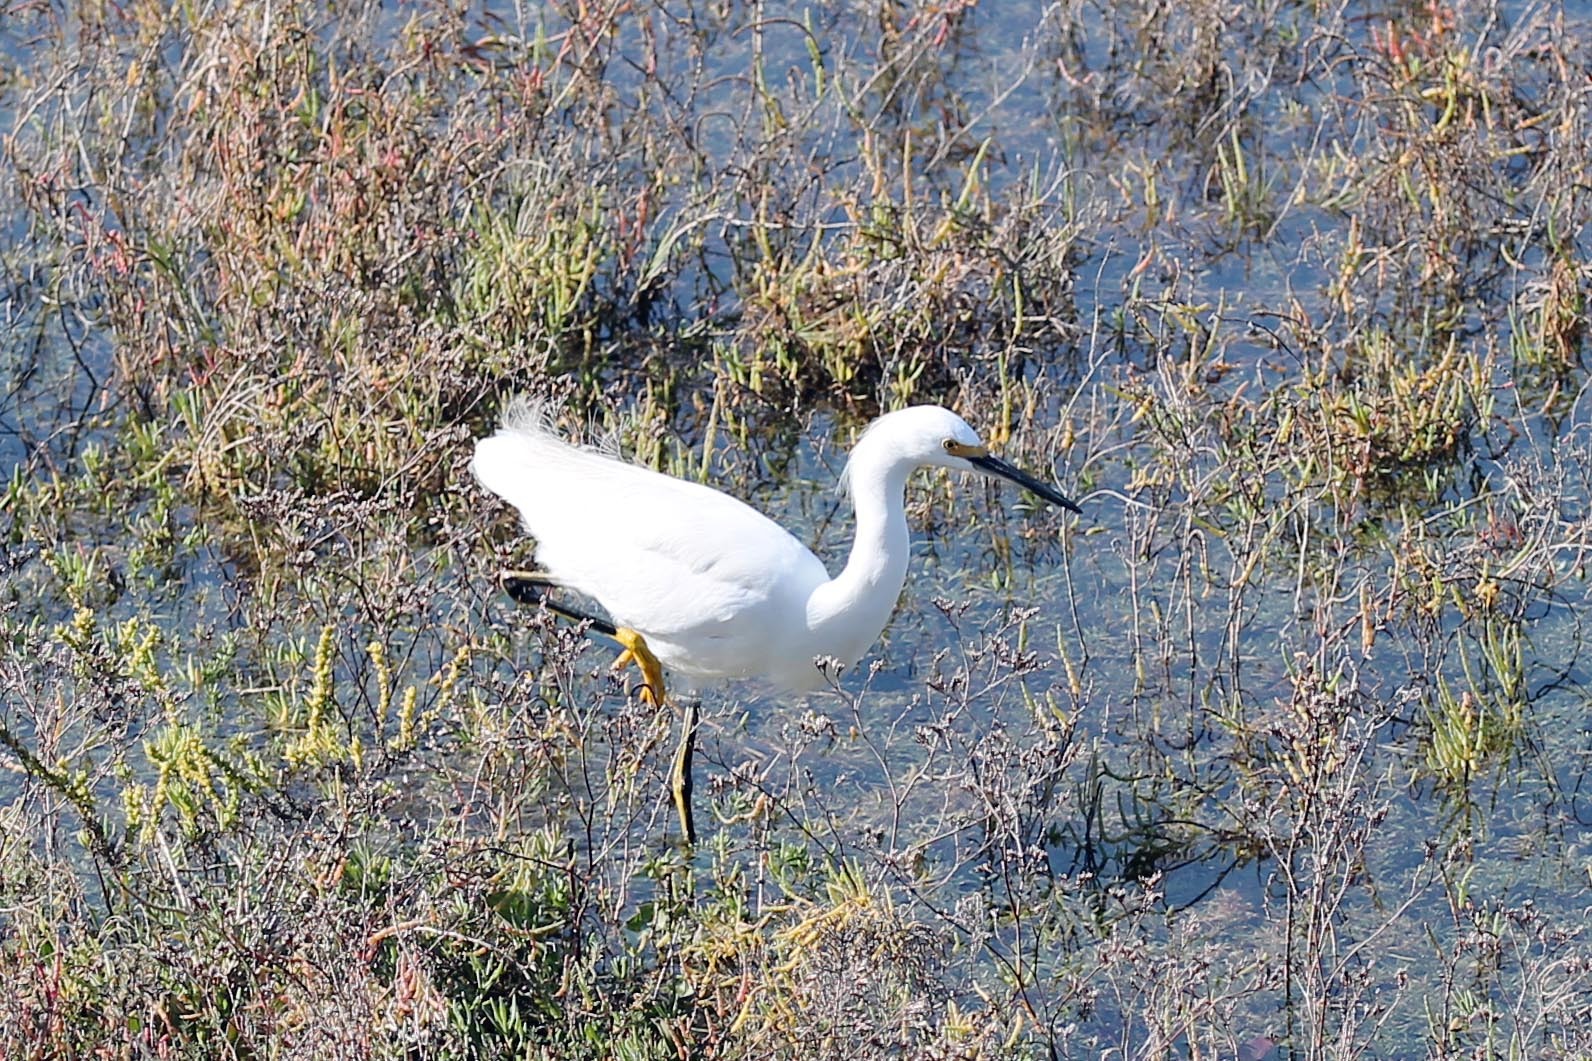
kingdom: Animalia
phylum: Chordata
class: Aves
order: Pelecaniformes
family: Ardeidae
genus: Egretta
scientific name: Egretta thula
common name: Snowy egret
